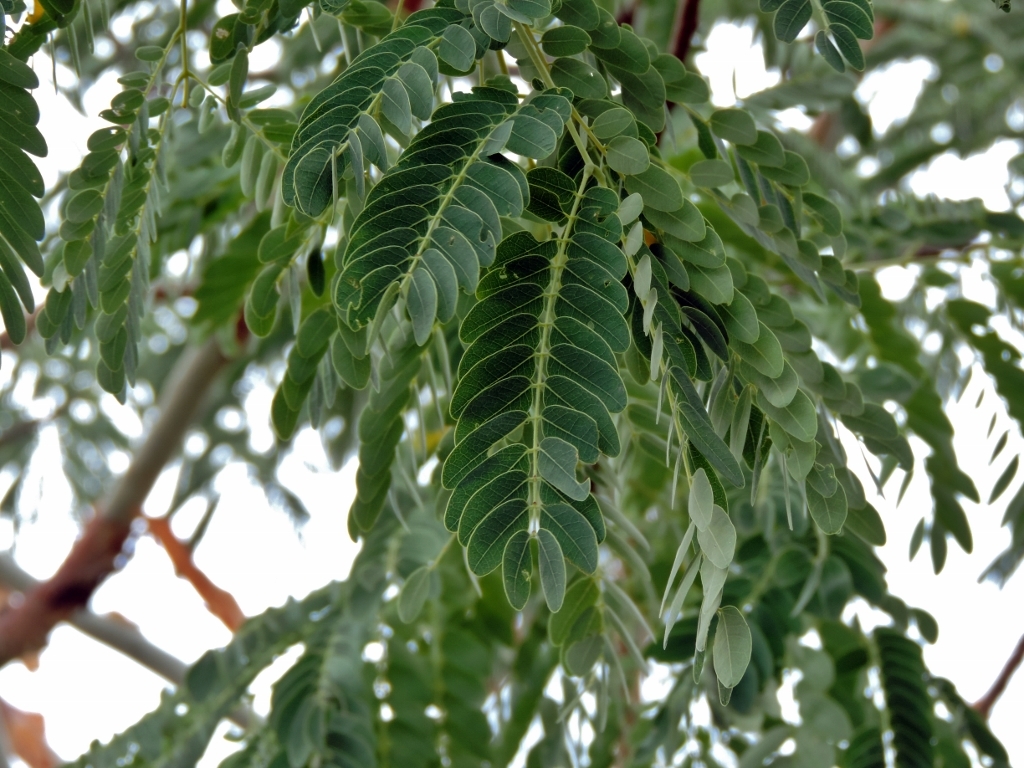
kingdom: Plantae
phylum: Tracheophyta
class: Magnoliopsida
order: Fabales
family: Fabaceae
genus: Albizia
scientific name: Albizia tanganyicensis
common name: Paperbark false thorn
